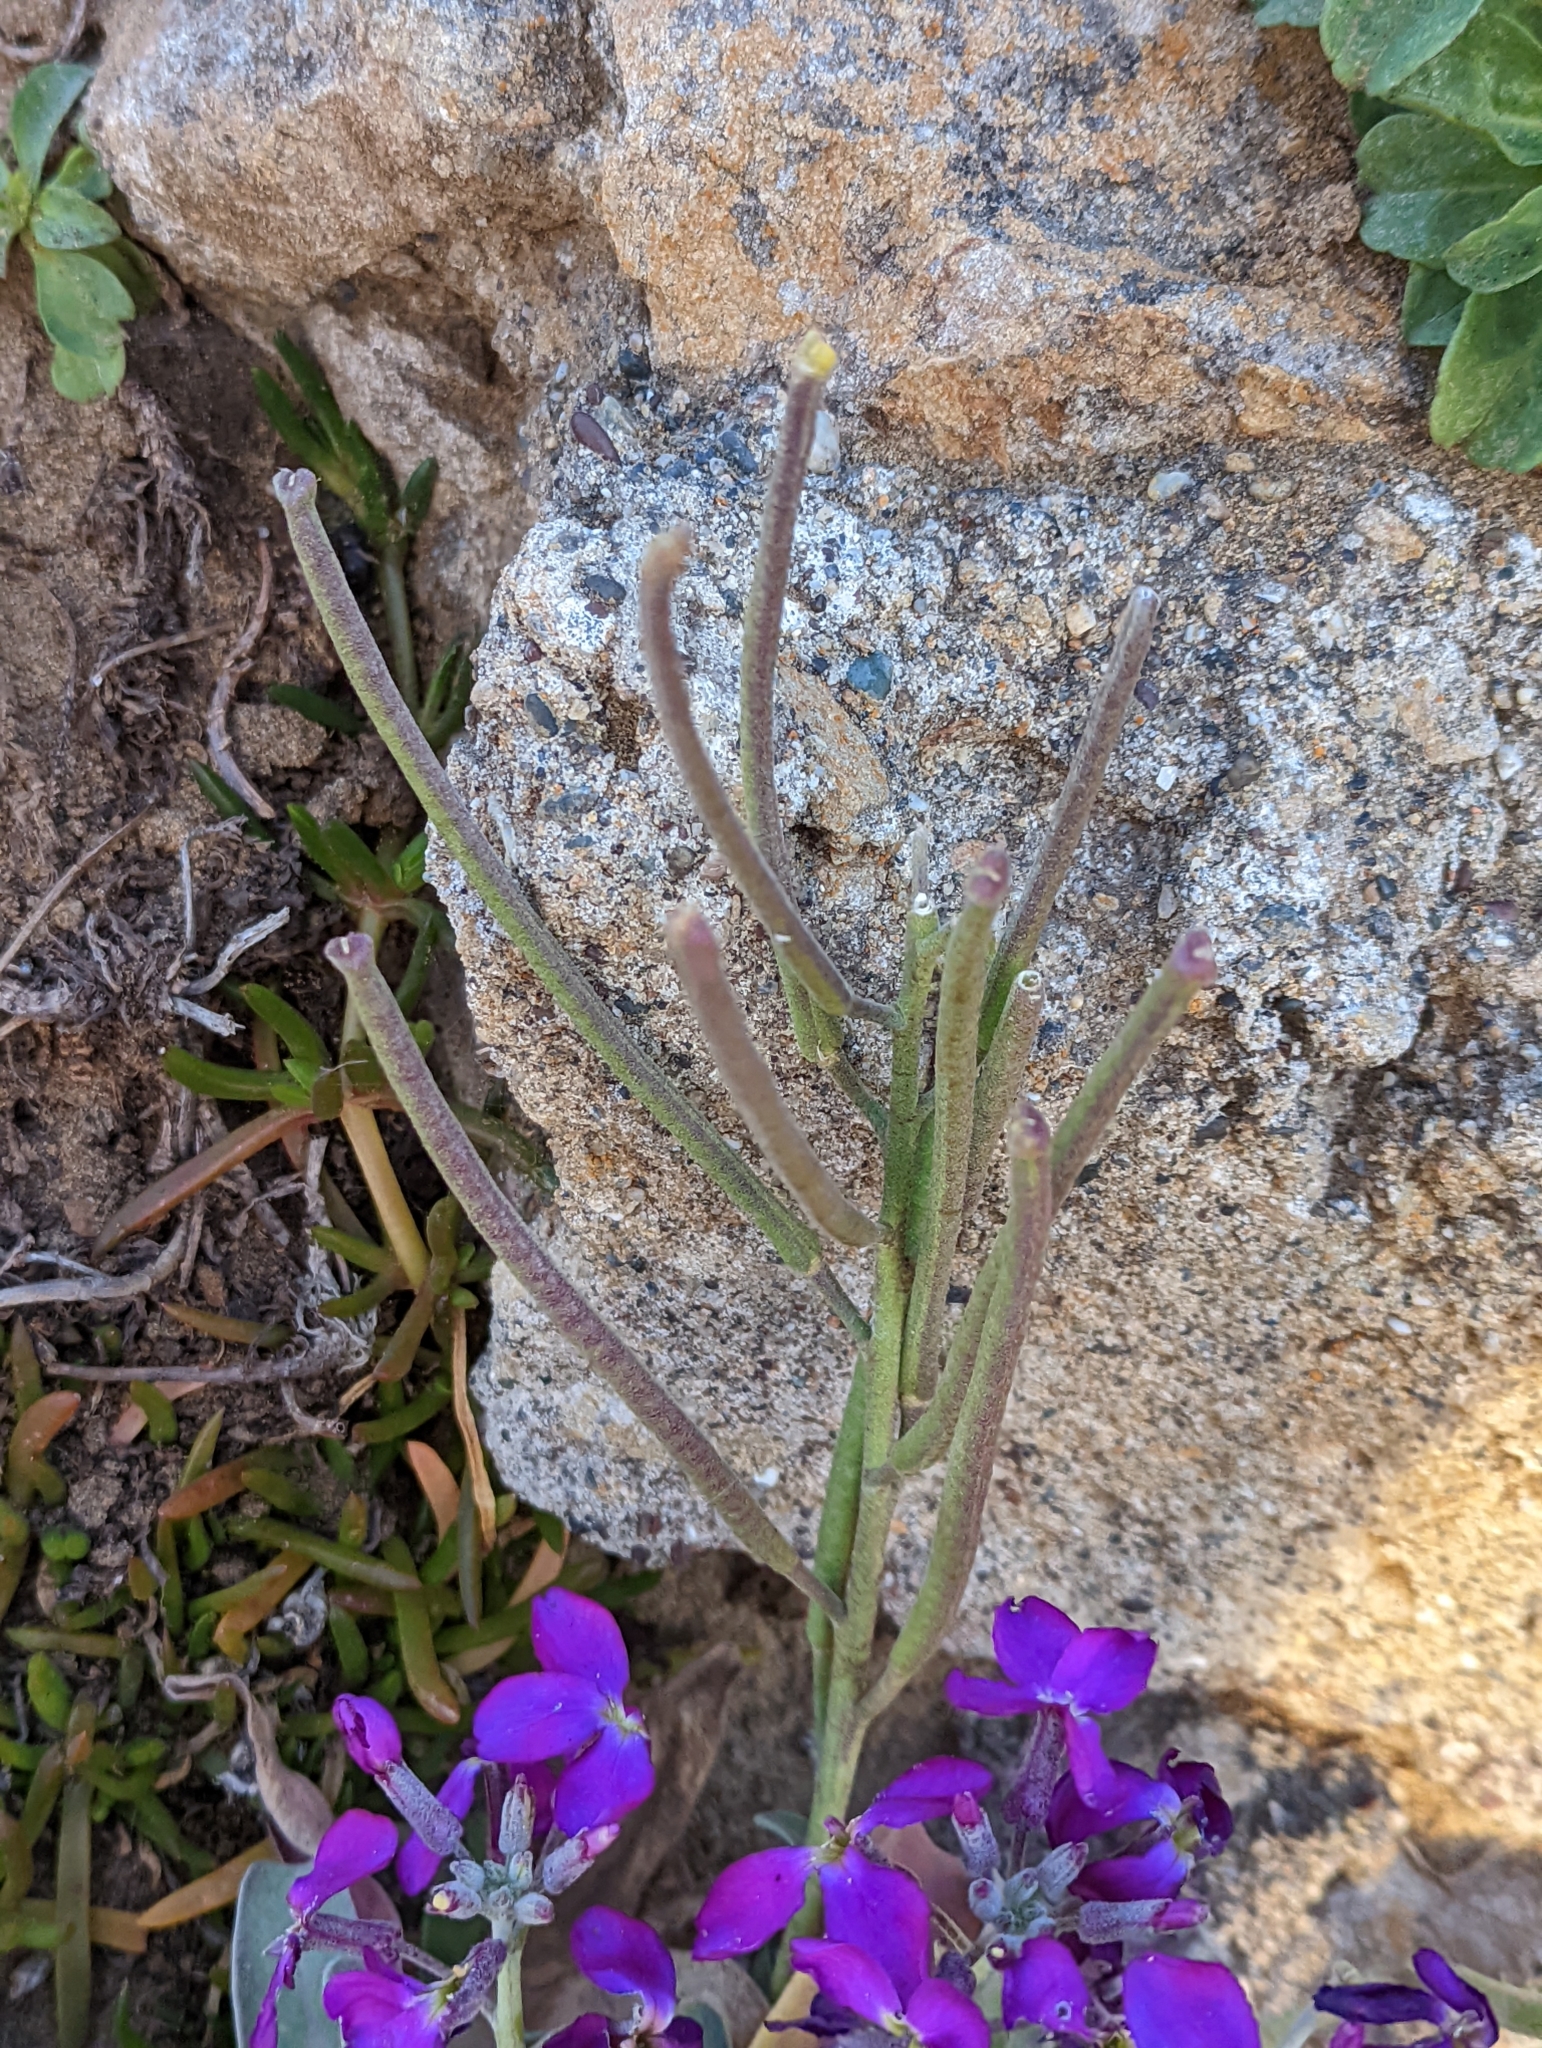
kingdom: Plantae
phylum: Tracheophyta
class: Magnoliopsida
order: Brassicales
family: Brassicaceae
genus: Matthiola
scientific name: Matthiola incana
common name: Hoary stock
